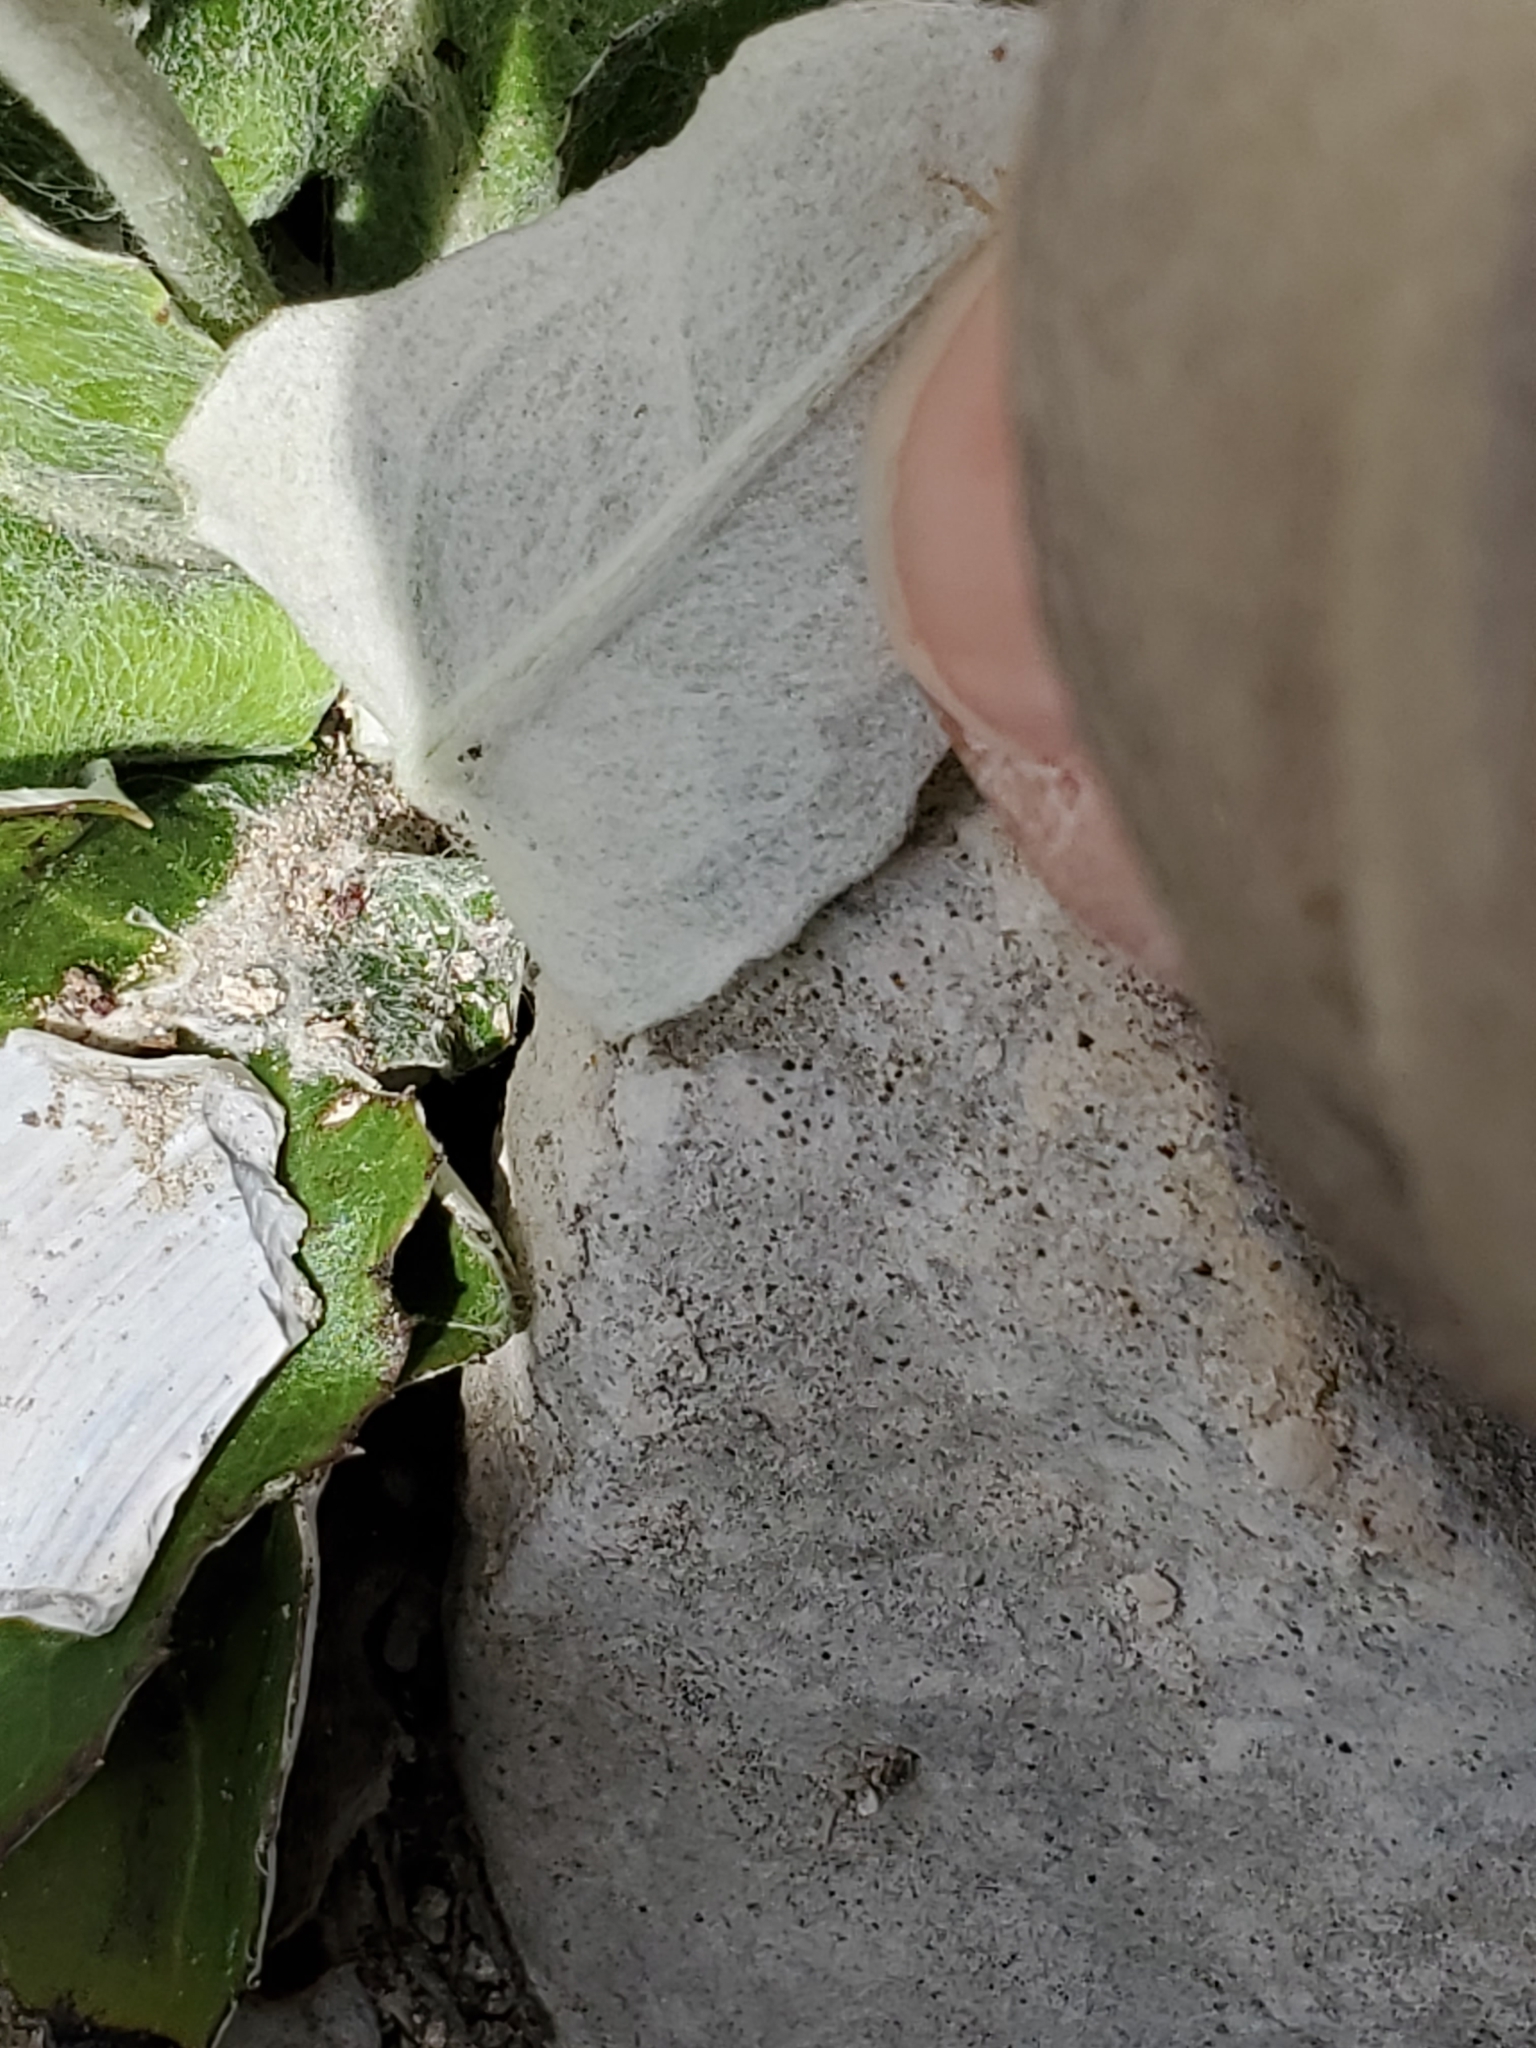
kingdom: Plantae
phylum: Tracheophyta
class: Magnoliopsida
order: Asterales
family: Asteraceae
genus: Chaptalia
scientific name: Chaptalia texana
